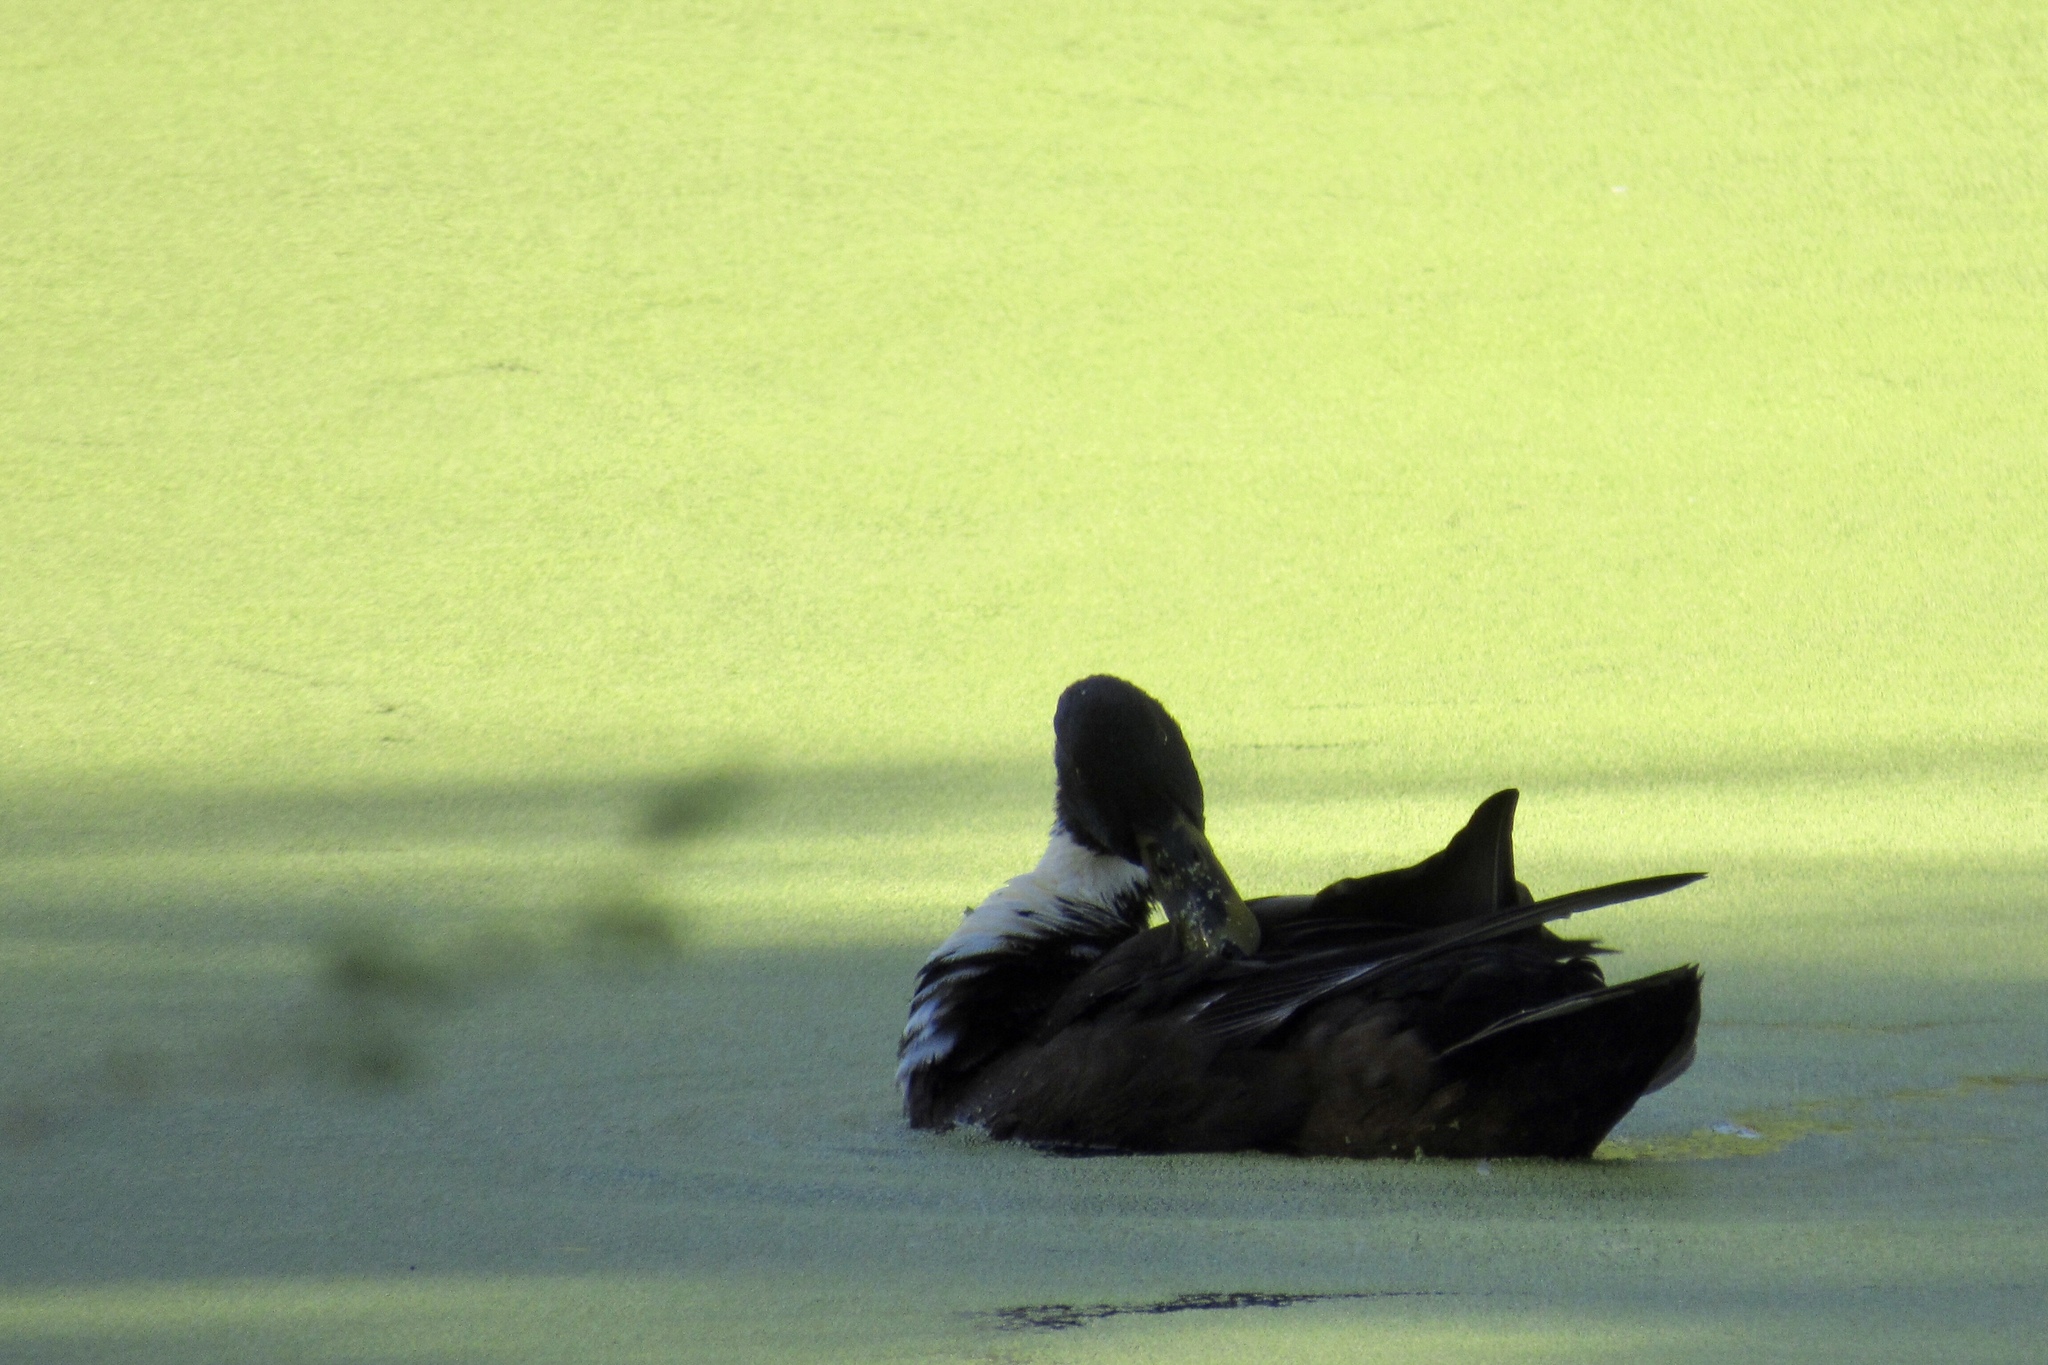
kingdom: Animalia
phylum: Chordata
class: Aves
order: Anseriformes
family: Anatidae
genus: Anas
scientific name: Anas platyrhynchos
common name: Mallard
